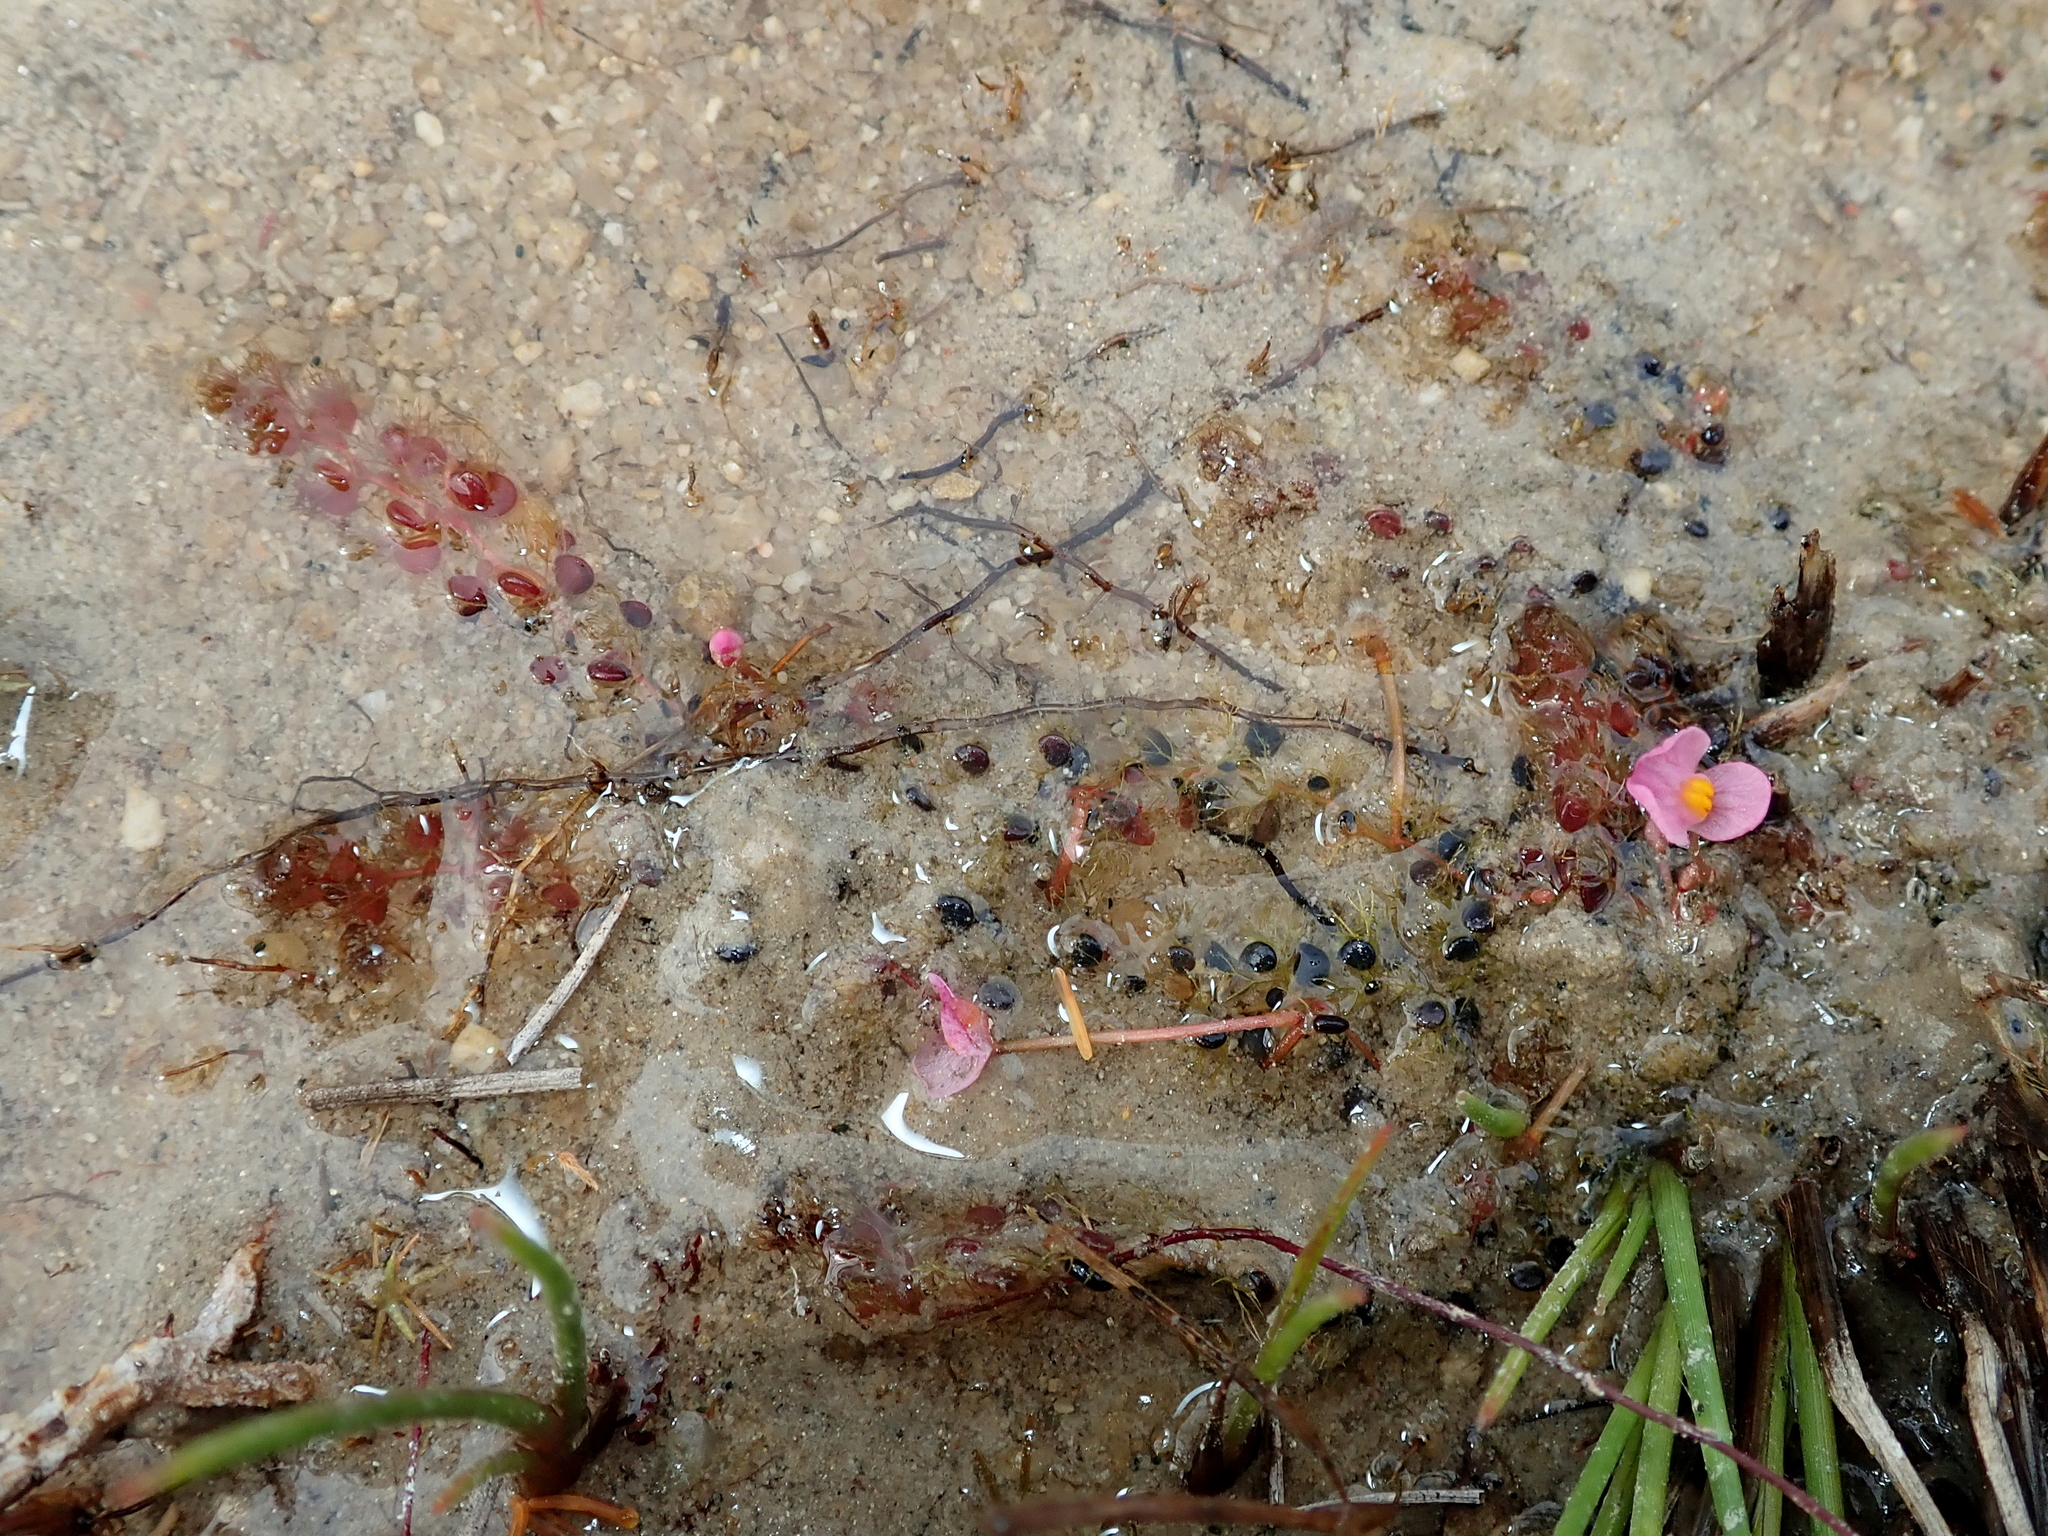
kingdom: Plantae
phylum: Tracheophyta
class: Magnoliopsida
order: Lamiales
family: Lentibulariaceae
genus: Utricularia
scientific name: Utricularia hydrocarpa
